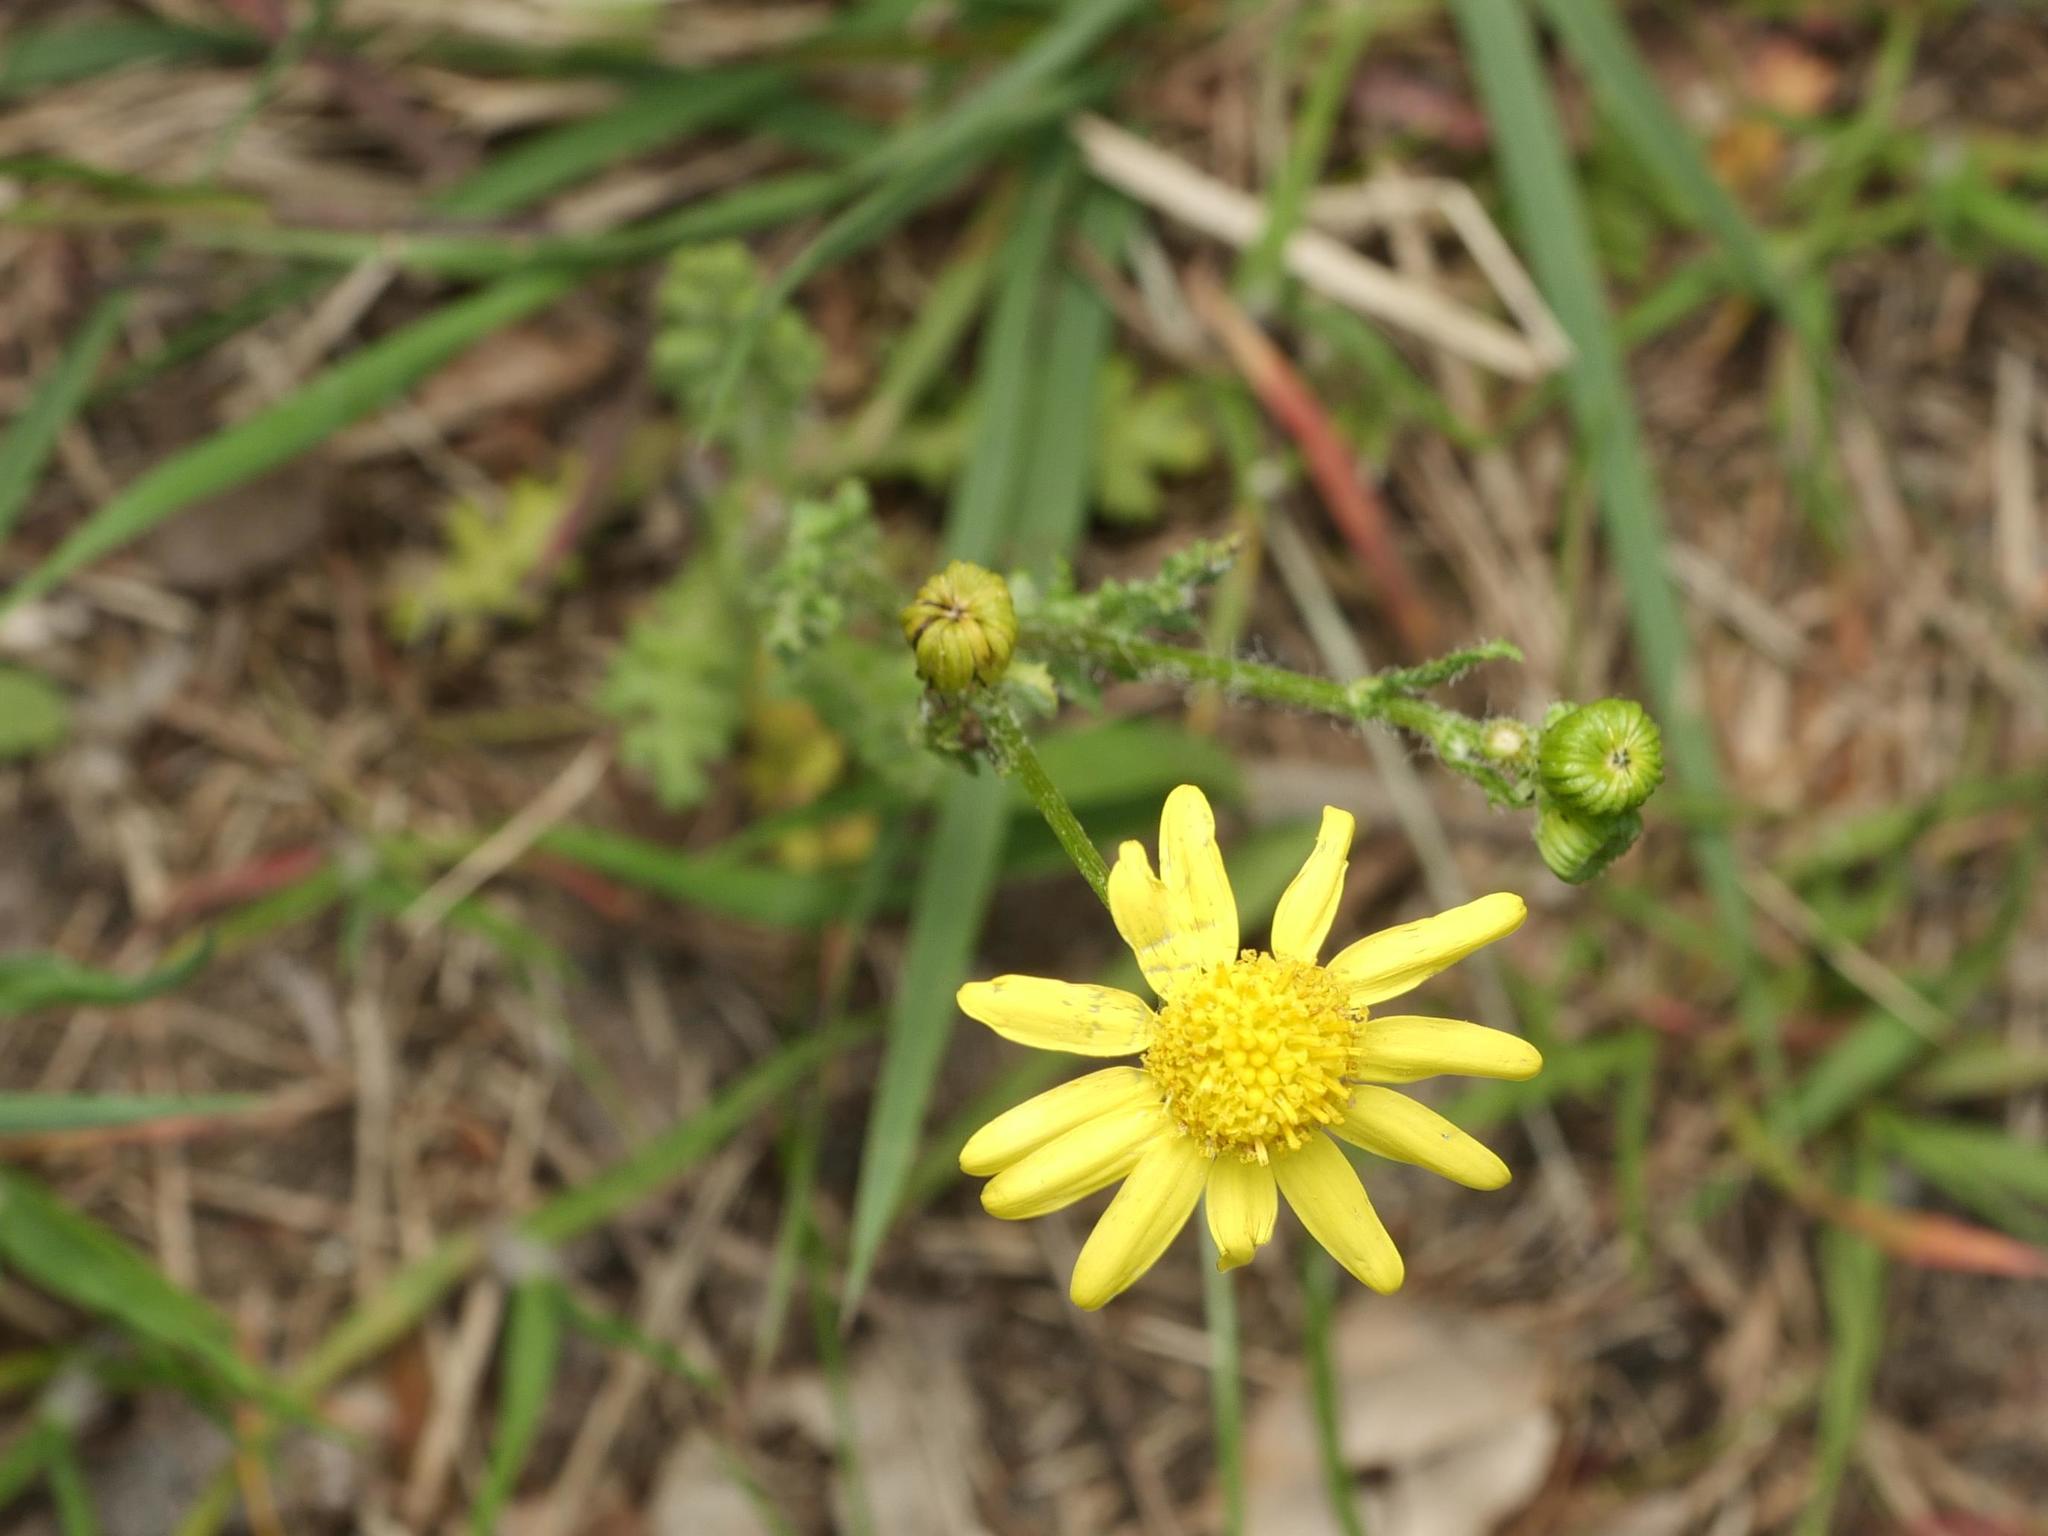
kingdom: Plantae
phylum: Tracheophyta
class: Magnoliopsida
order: Asterales
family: Asteraceae
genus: Senecio
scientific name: Senecio vernalis
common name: Eastern groundsel
